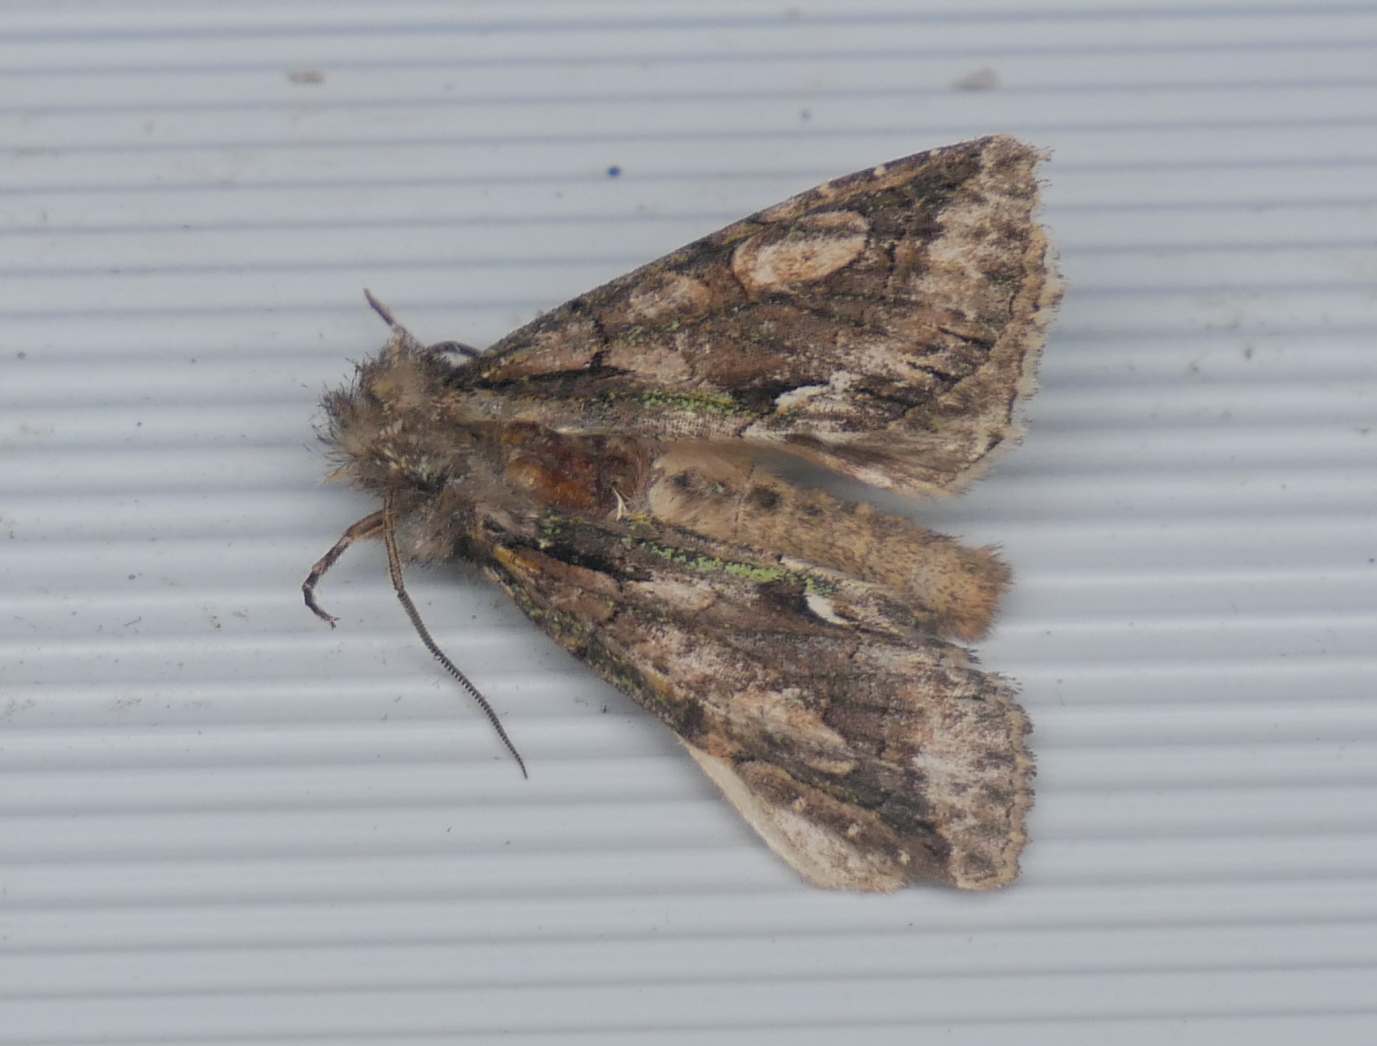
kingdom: Animalia
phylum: Arthropoda
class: Insecta
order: Lepidoptera
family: Noctuidae
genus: Allophyes
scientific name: Allophyes oxyacanthae
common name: Green-brindled crescent
